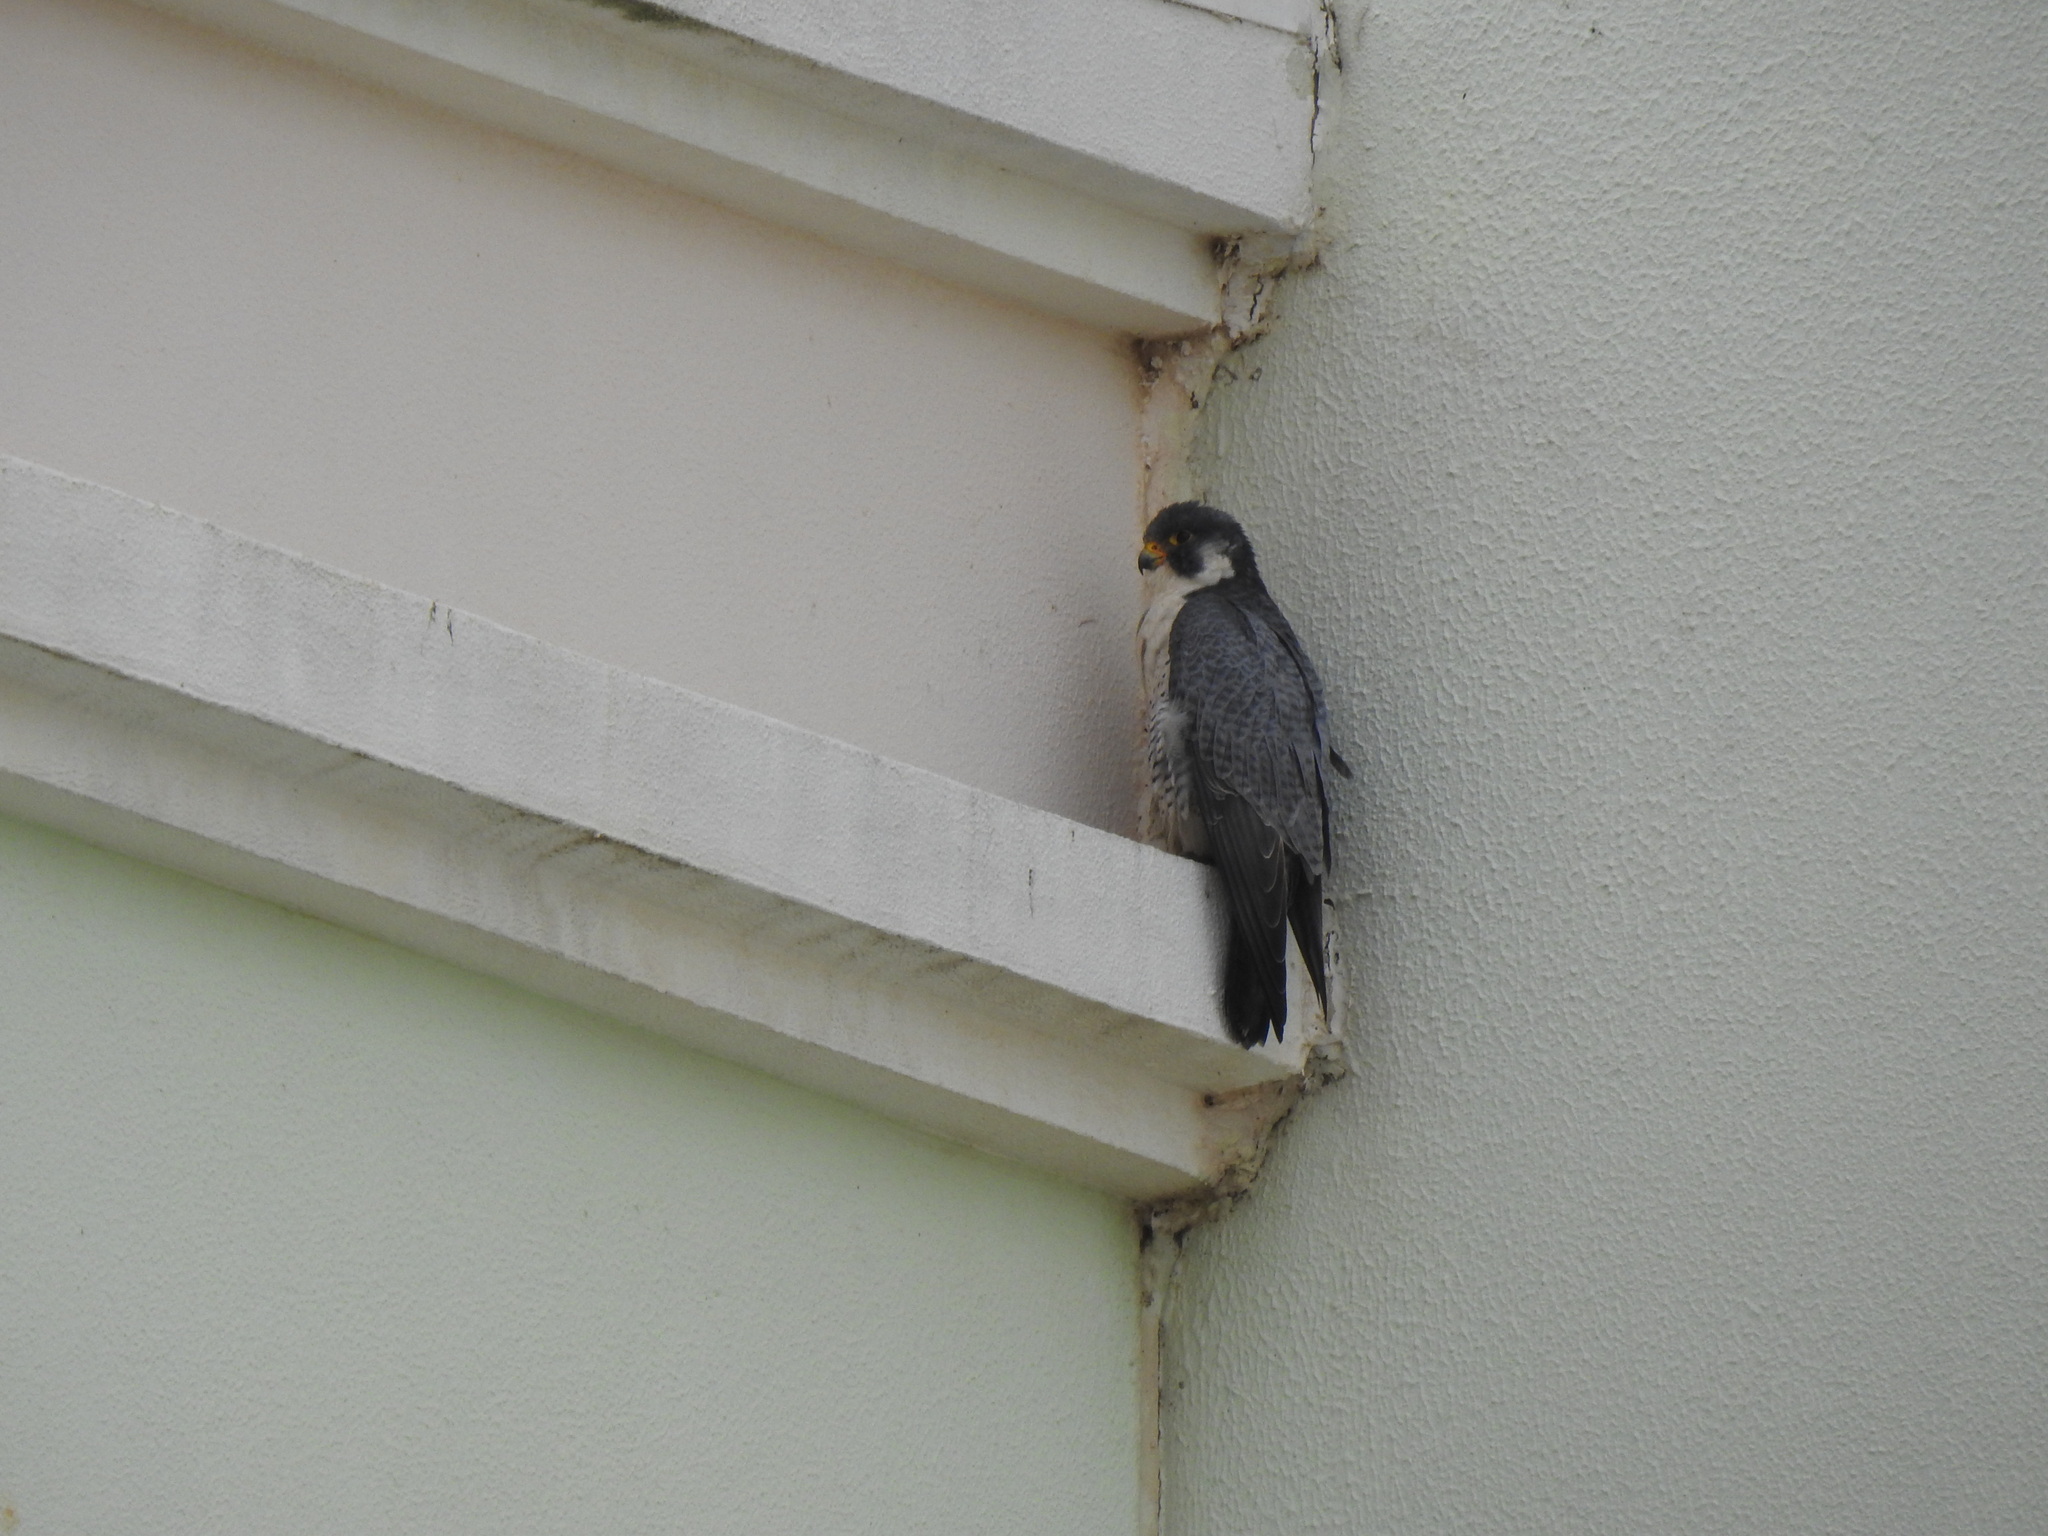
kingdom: Animalia
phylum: Chordata
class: Aves
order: Falconiformes
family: Falconidae
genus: Falco
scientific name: Falco peregrinus
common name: Peregrine falcon
